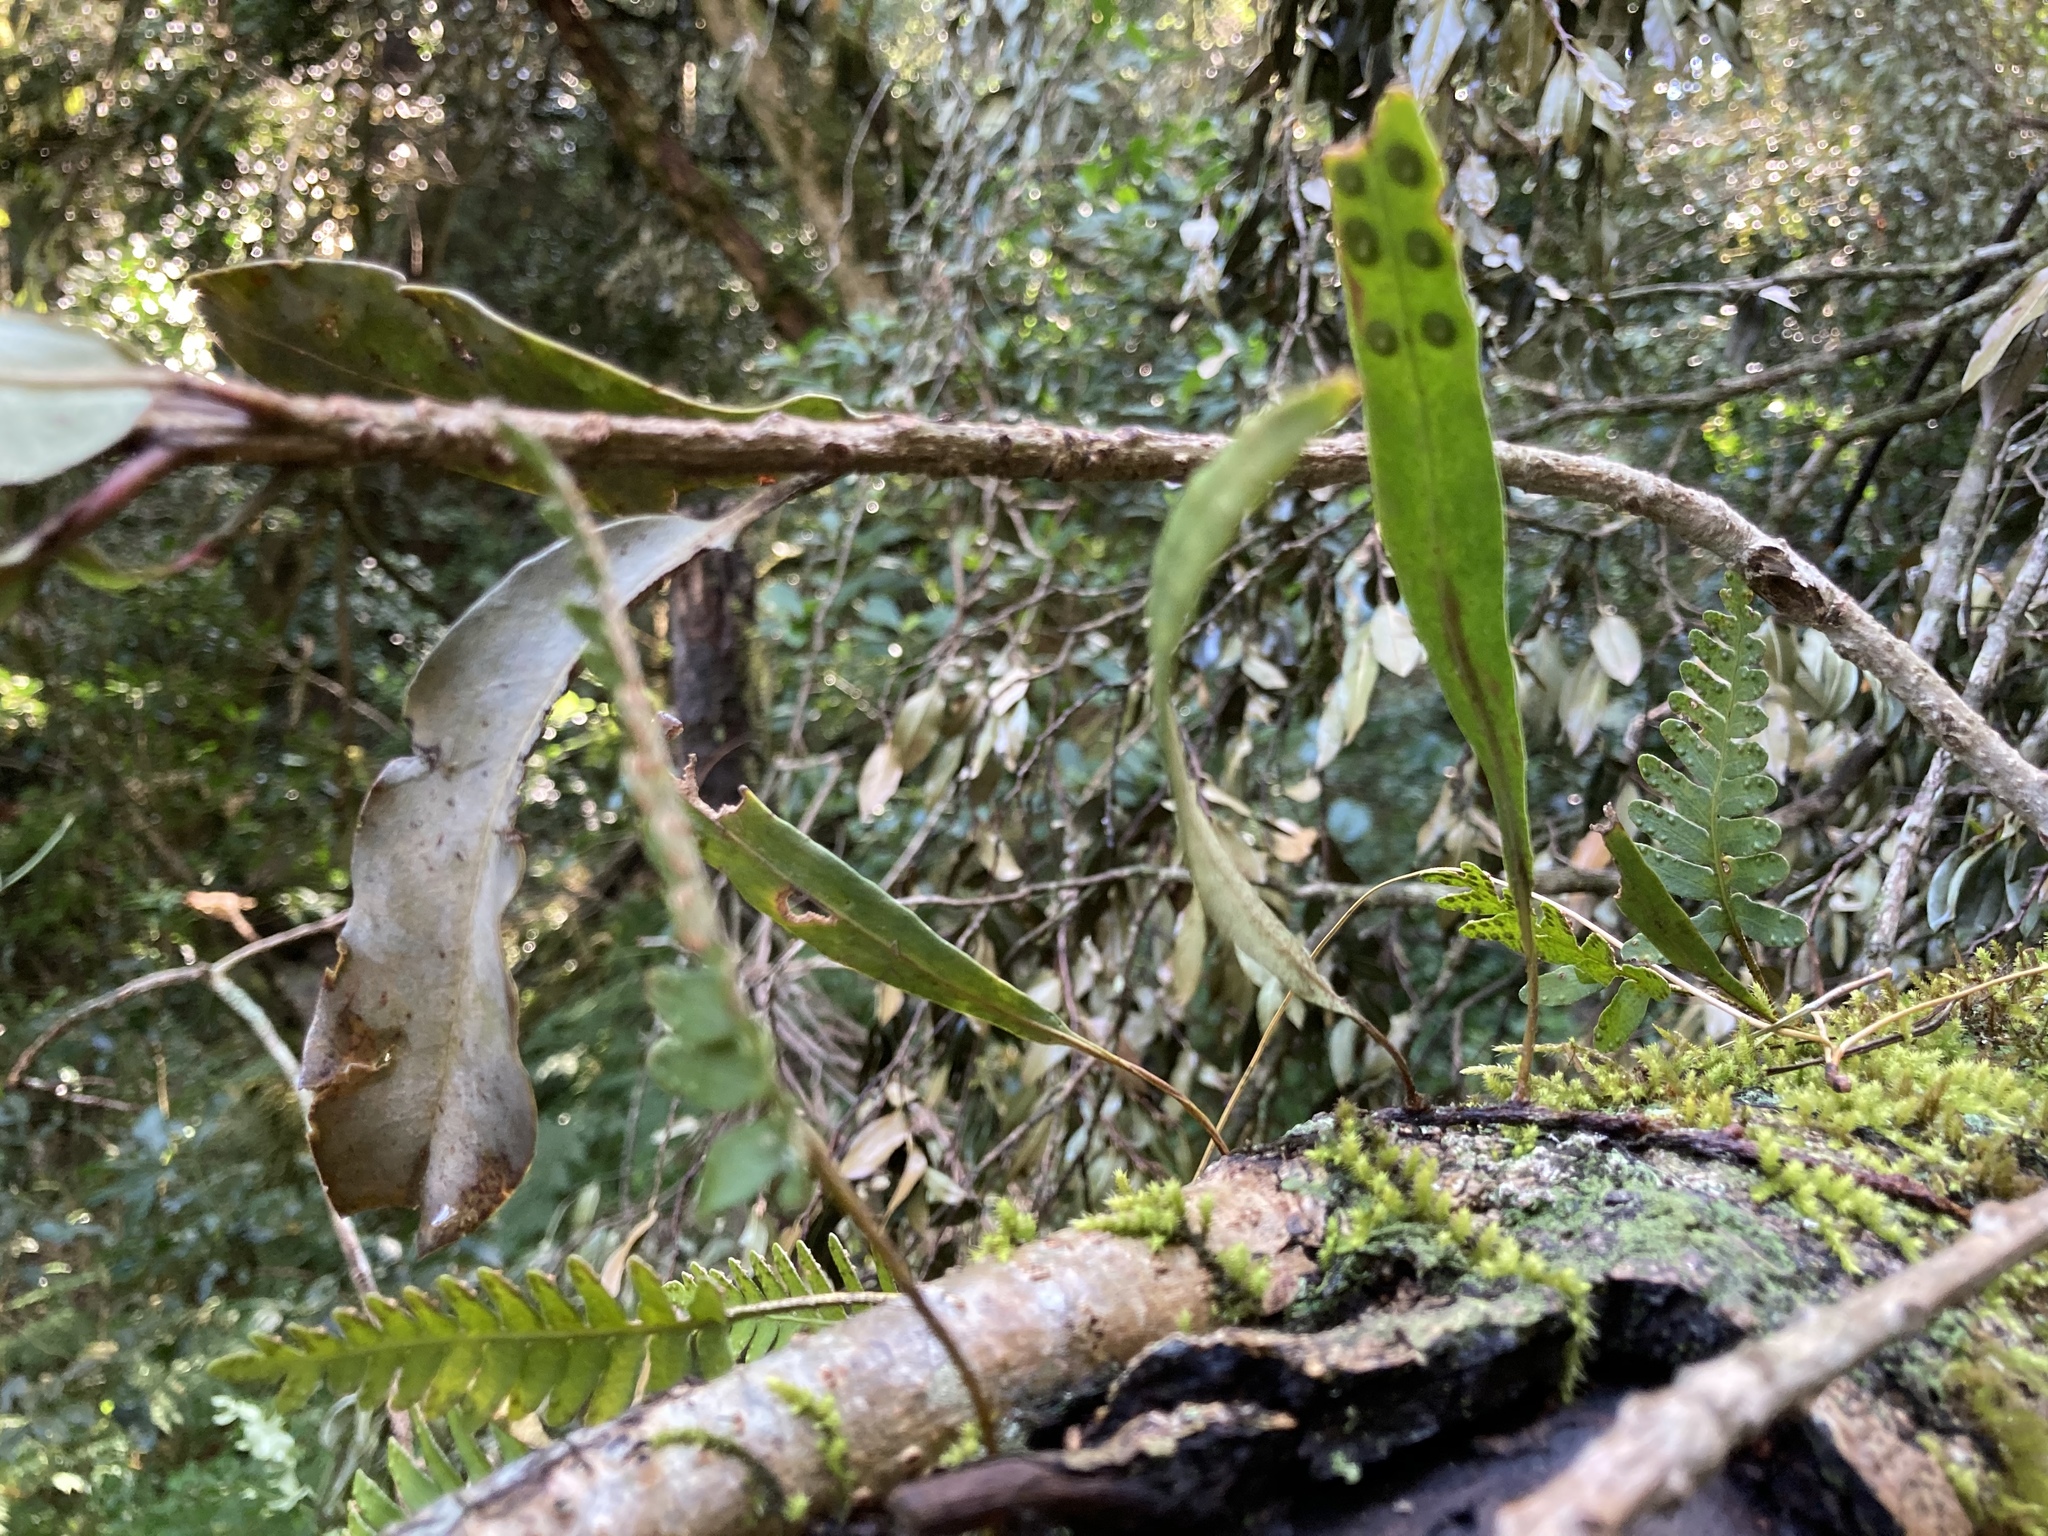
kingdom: Plantae
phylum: Tracheophyta
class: Polypodiopsida
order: Polypodiales
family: Polypodiaceae
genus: Pleopeltis
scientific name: Pleopeltis macrocarpa
